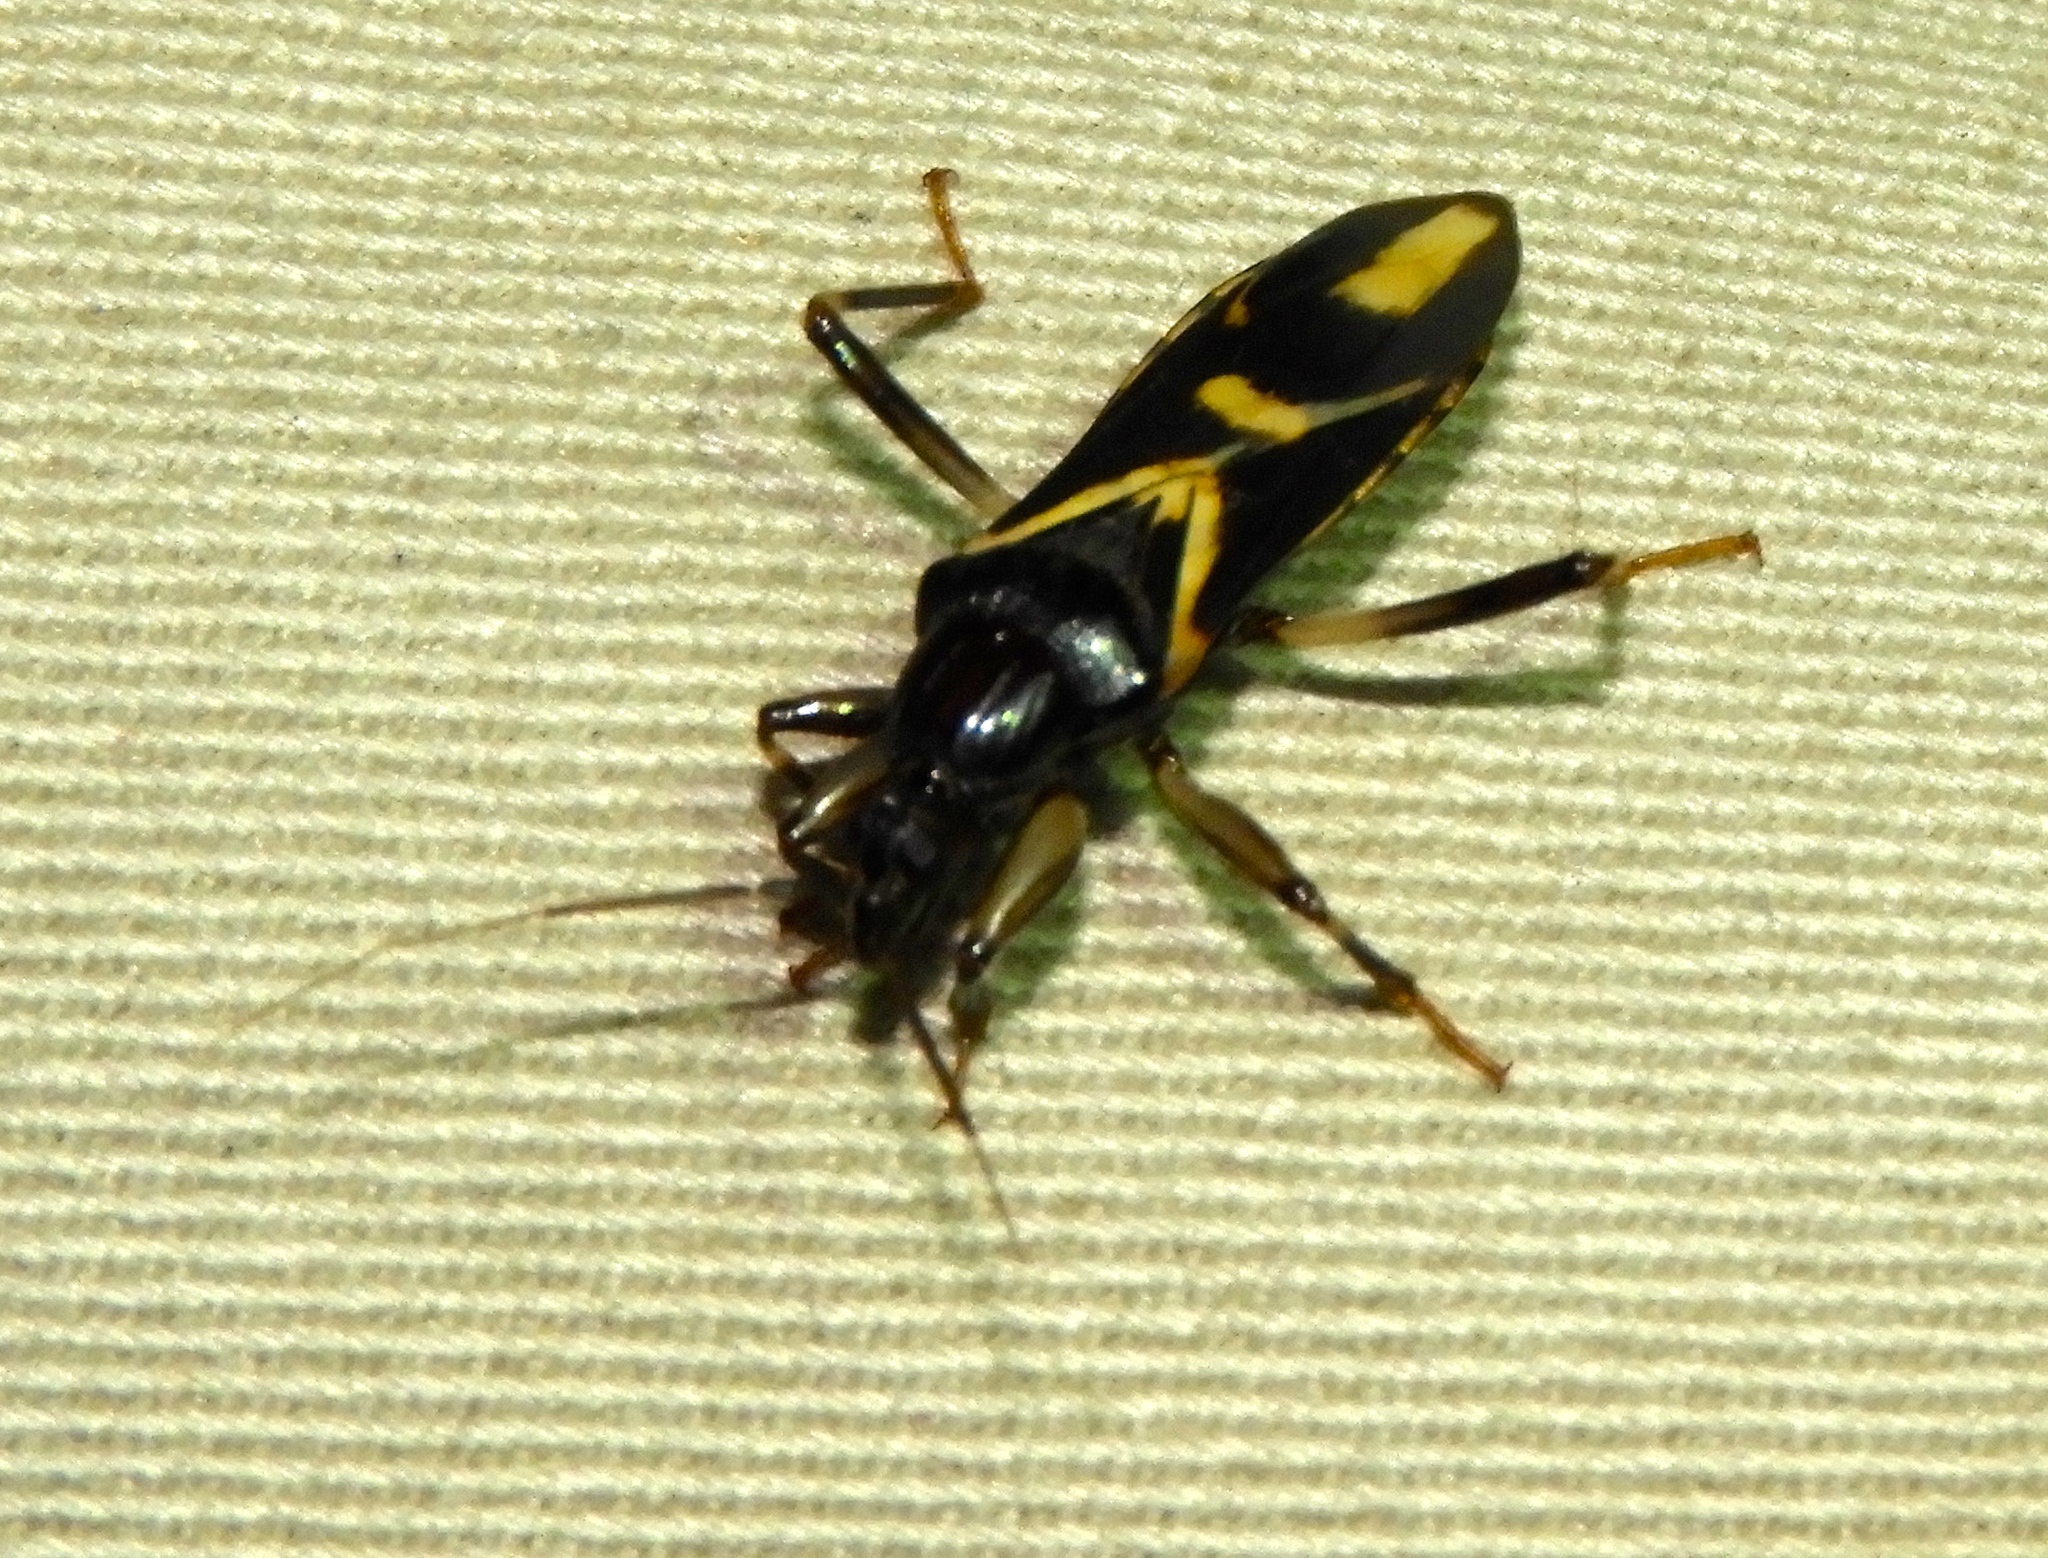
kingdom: Animalia
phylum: Arthropoda
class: Insecta
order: Hemiptera
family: Reduviidae
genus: Rasahus
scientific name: Rasahus sulcicollis
